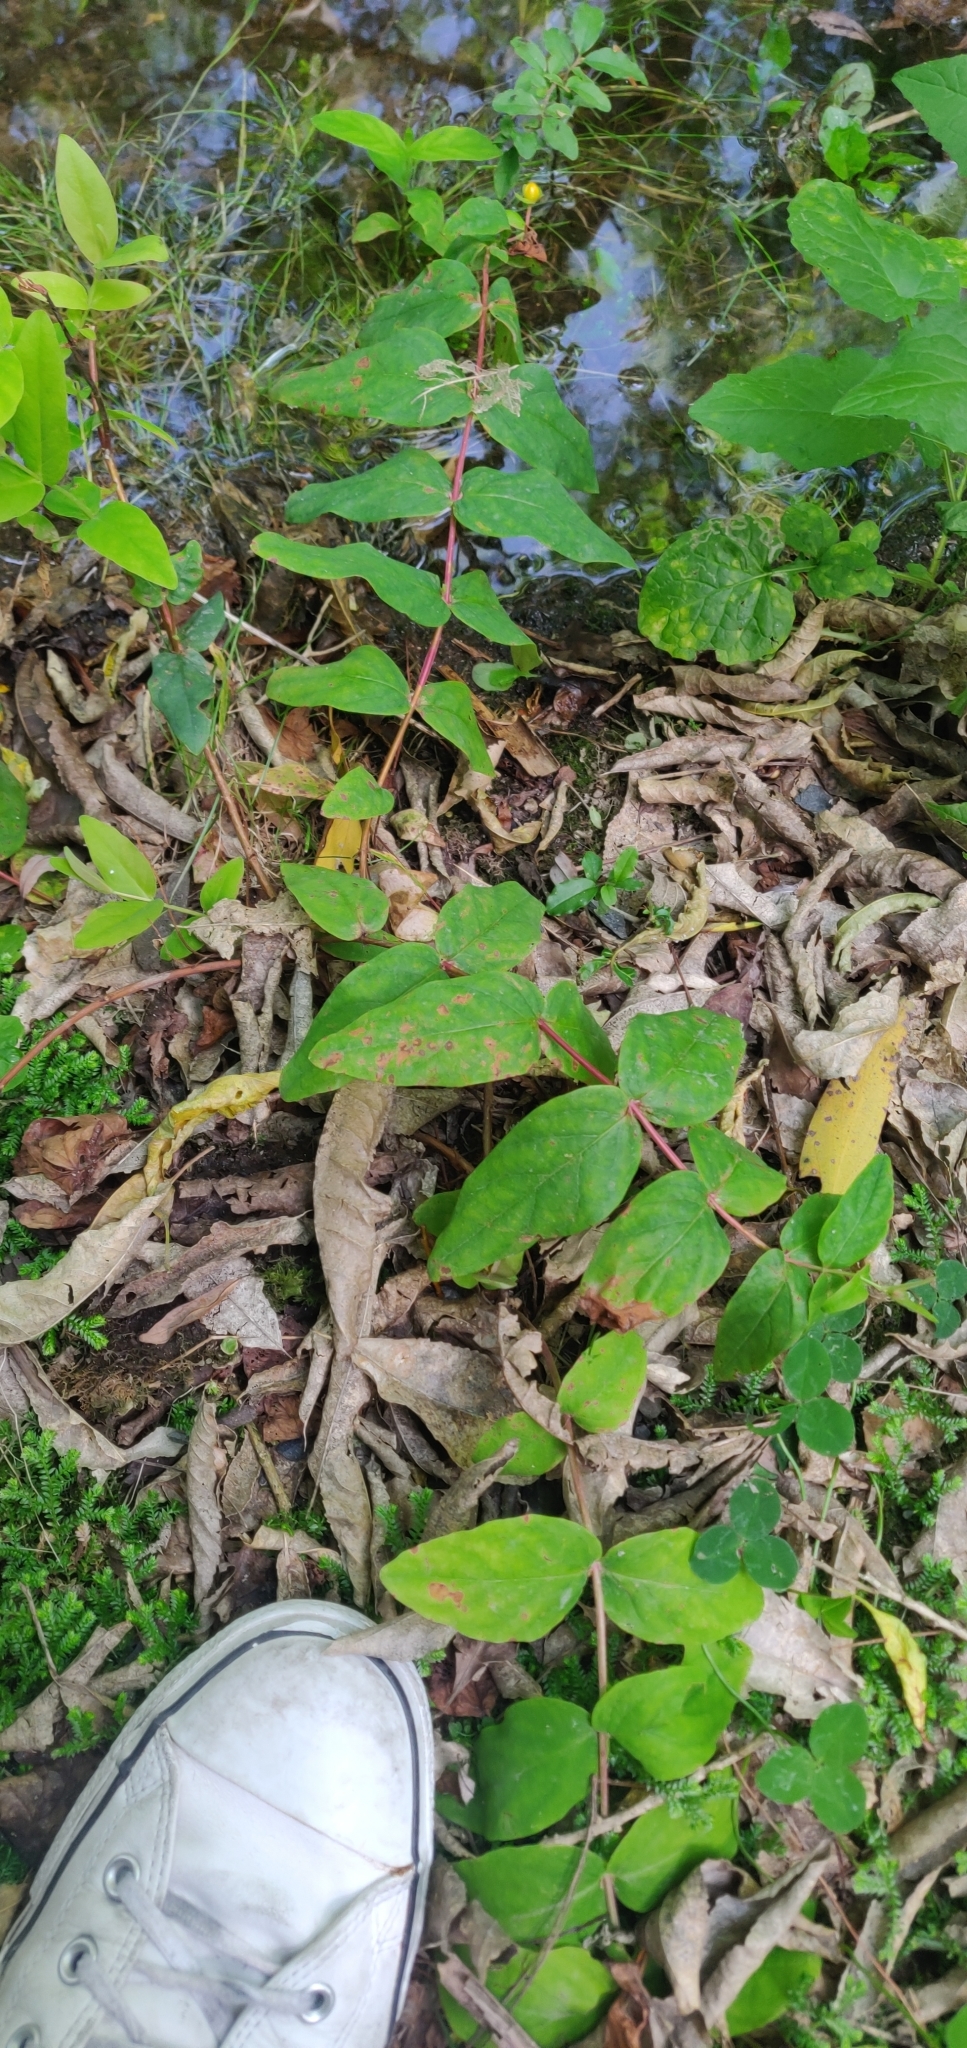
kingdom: Plantae
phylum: Tracheophyta
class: Magnoliopsida
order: Malpighiales
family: Hypericaceae
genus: Hypericum
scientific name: Hypericum androsaemum
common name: Sweet-amber
